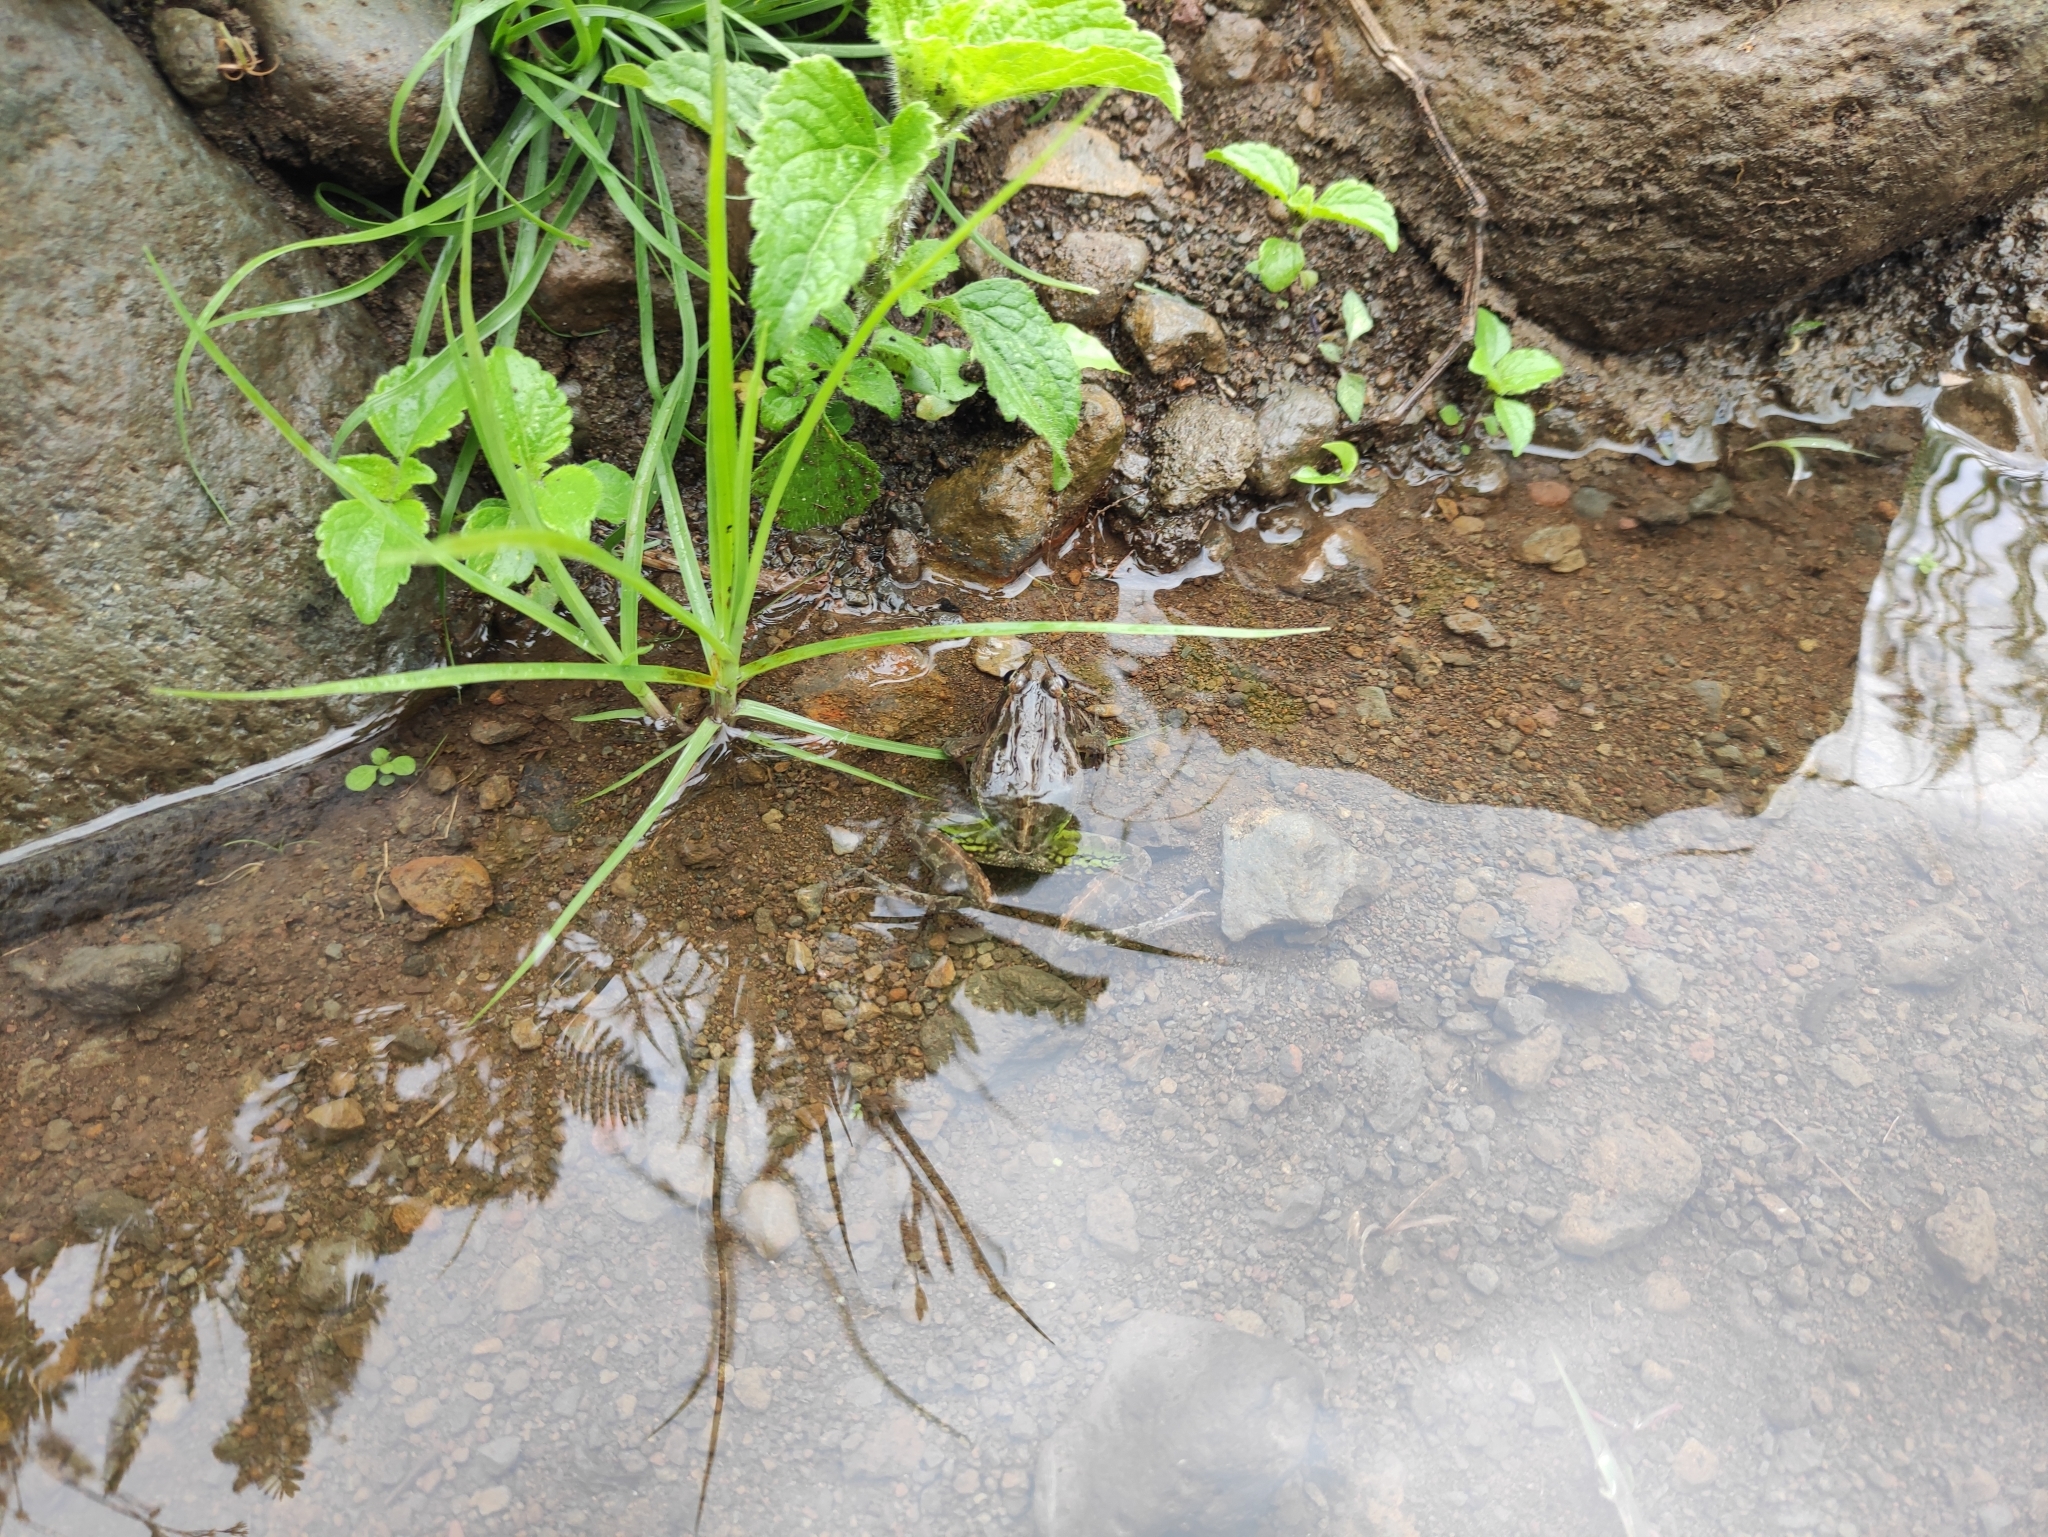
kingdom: Animalia
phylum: Chordata
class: Amphibia
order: Anura
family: Ptychadenidae
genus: Ptychadena
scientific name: Ptychadena mascareniensis
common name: Mascarene grass frog
